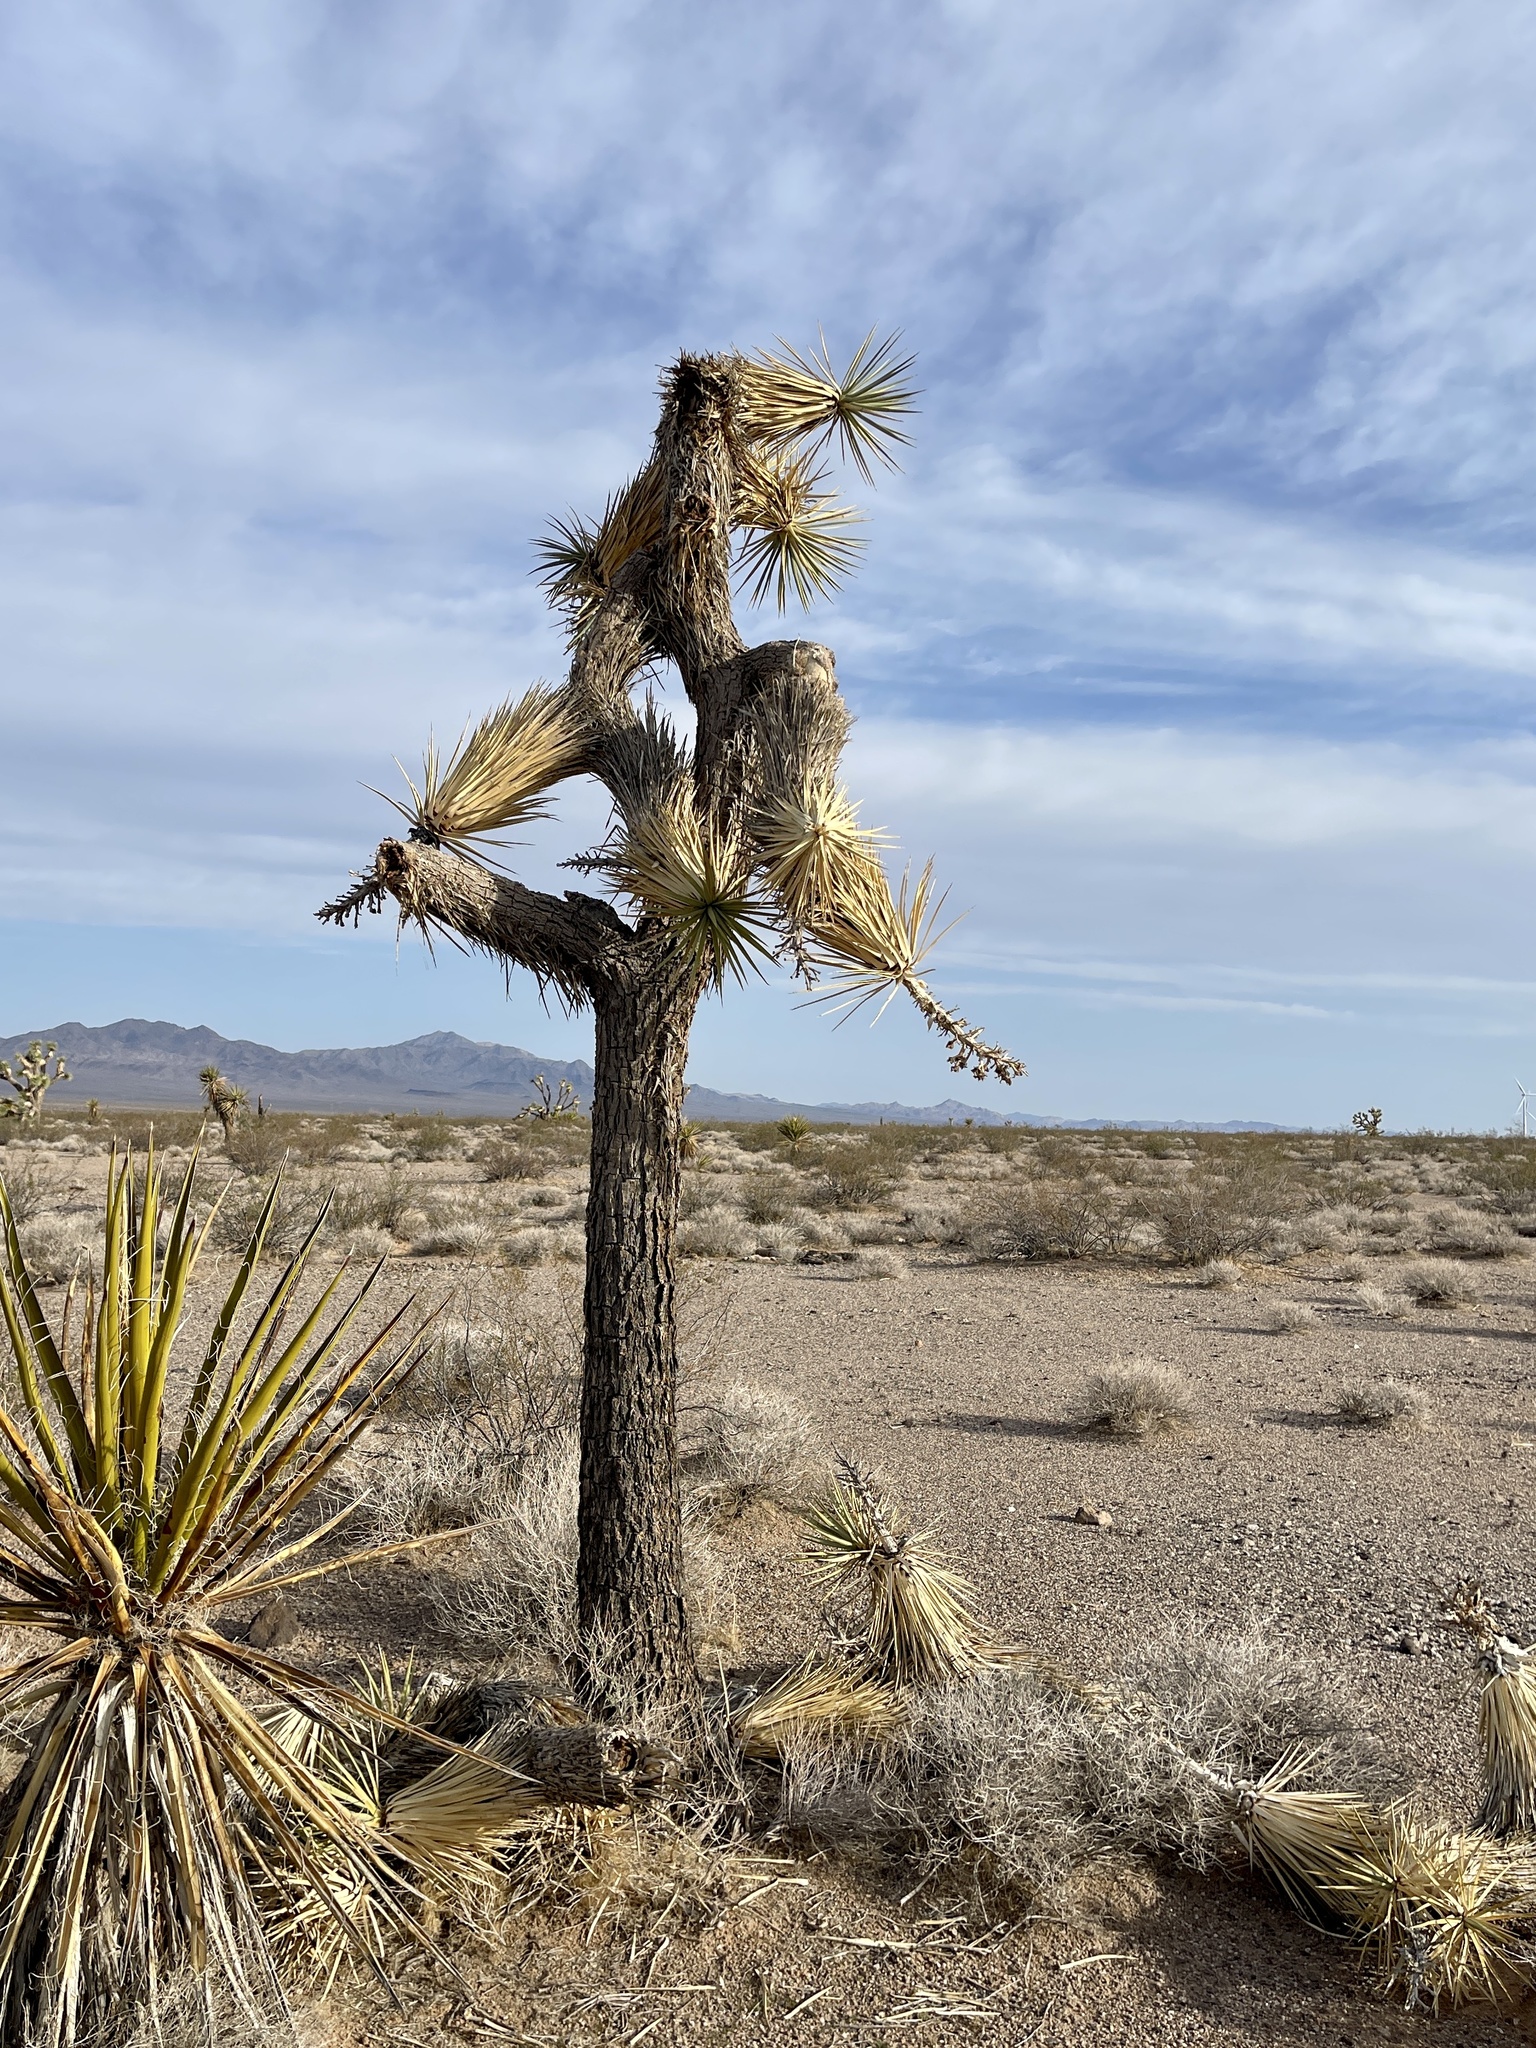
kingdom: Plantae
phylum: Tracheophyta
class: Liliopsida
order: Asparagales
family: Asparagaceae
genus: Yucca
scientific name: Yucca brevifolia
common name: Joshua tree
